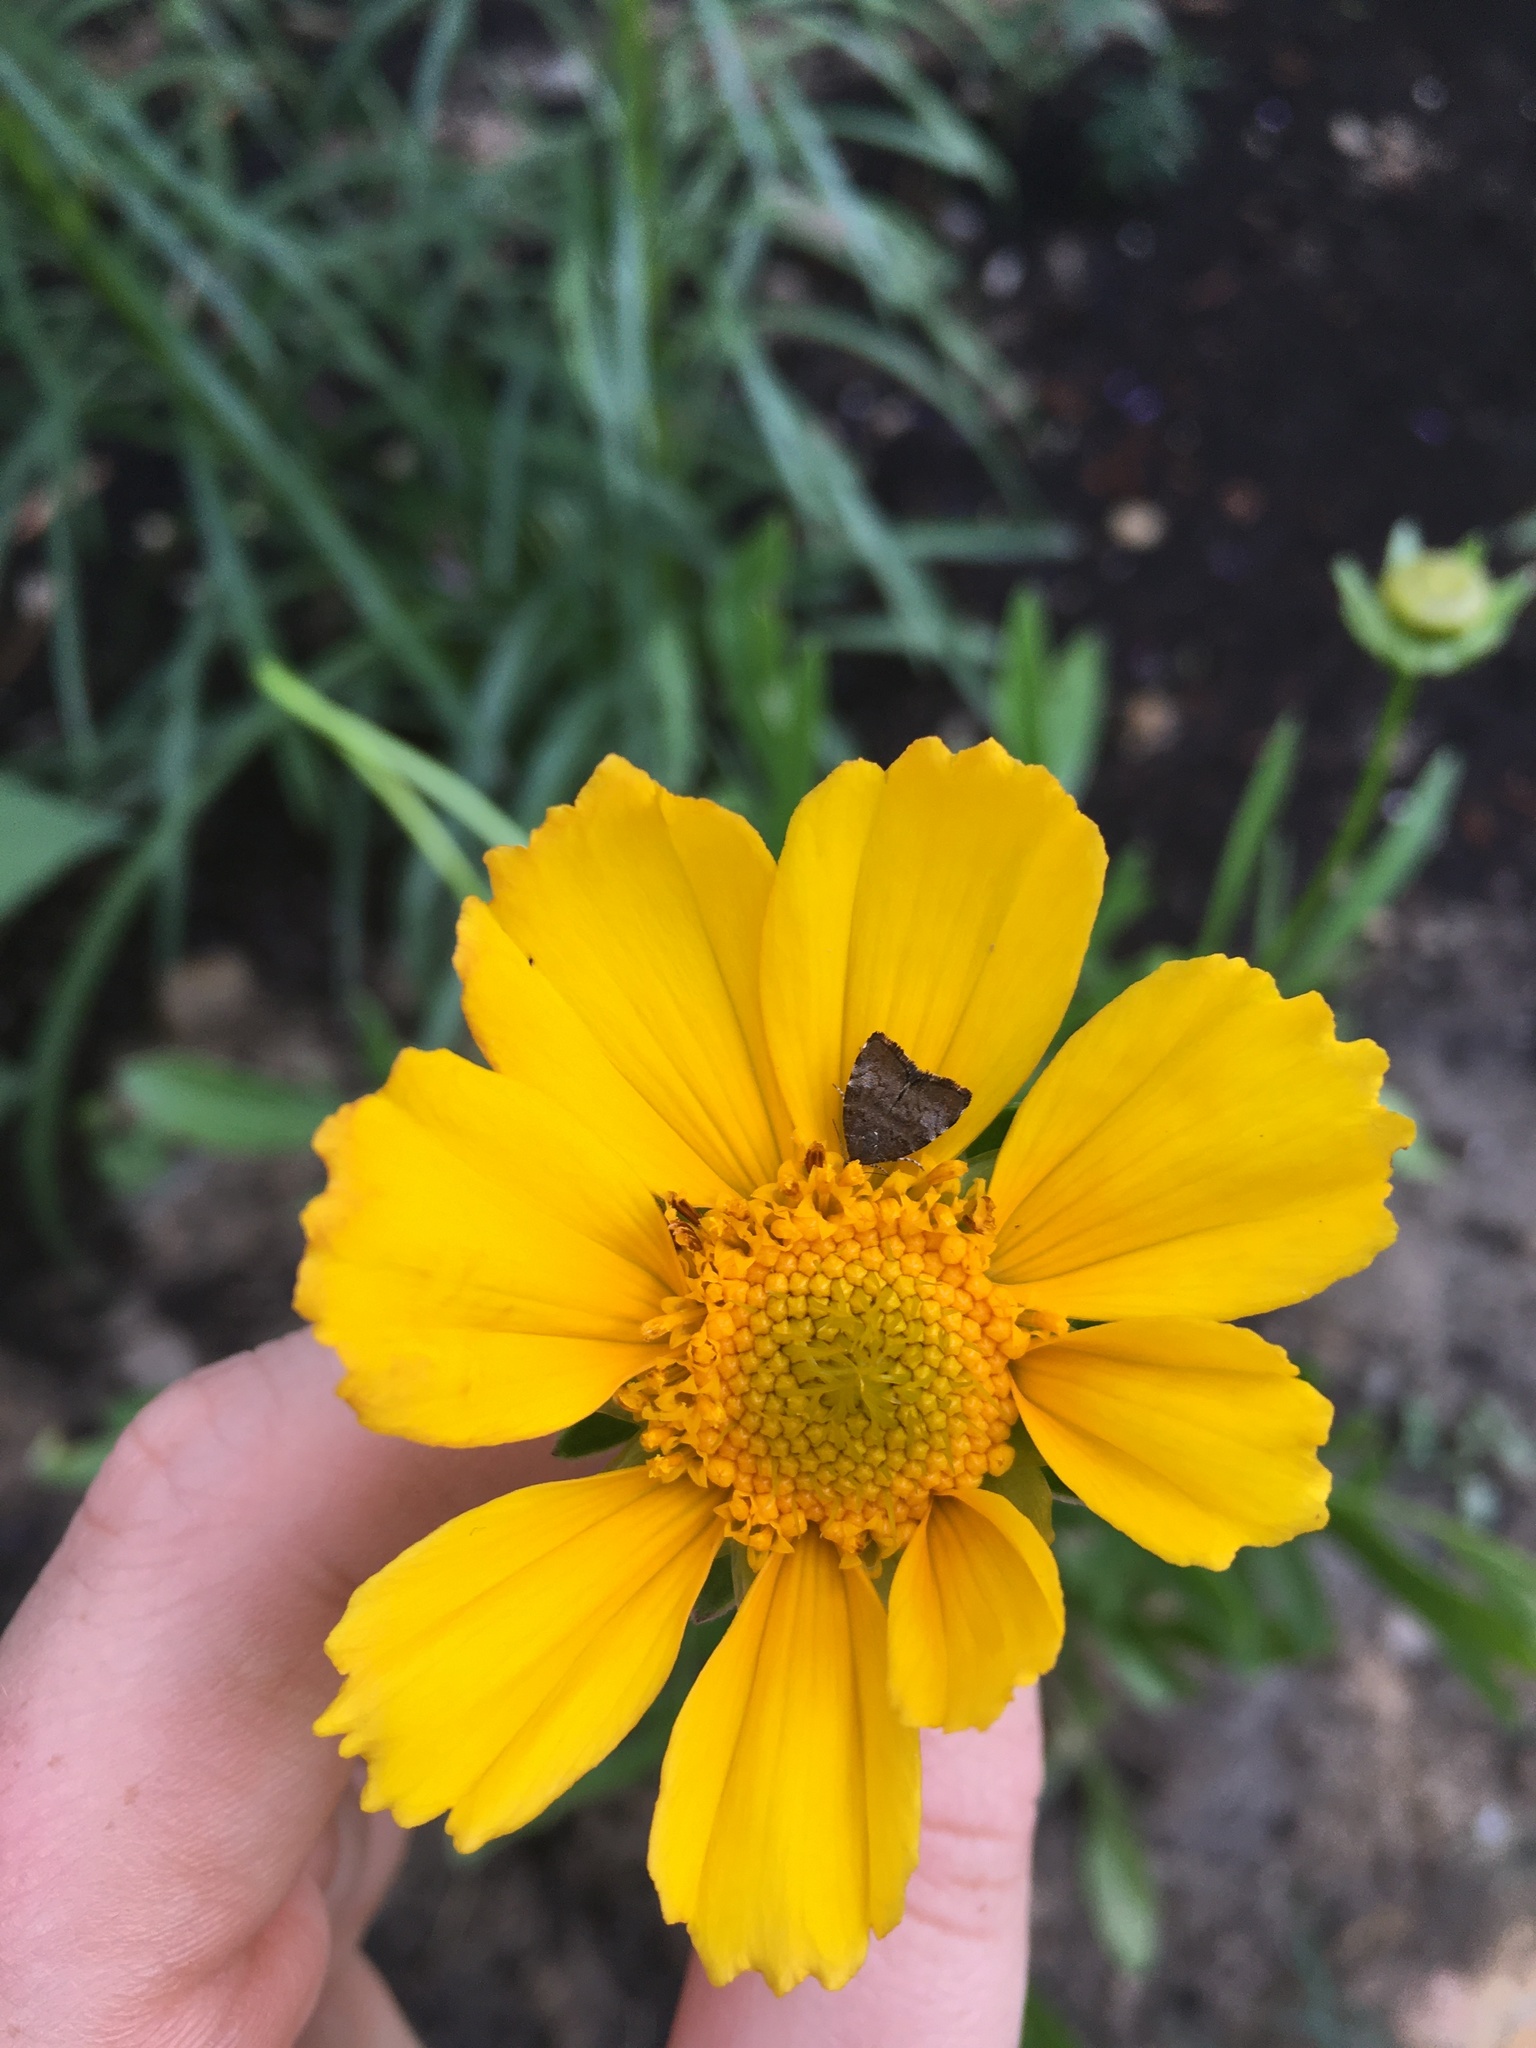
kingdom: Animalia
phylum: Arthropoda
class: Insecta
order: Lepidoptera
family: Choreutidae
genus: Choreutis
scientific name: Choreutis pariana
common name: Apple leaf skeletoniser
